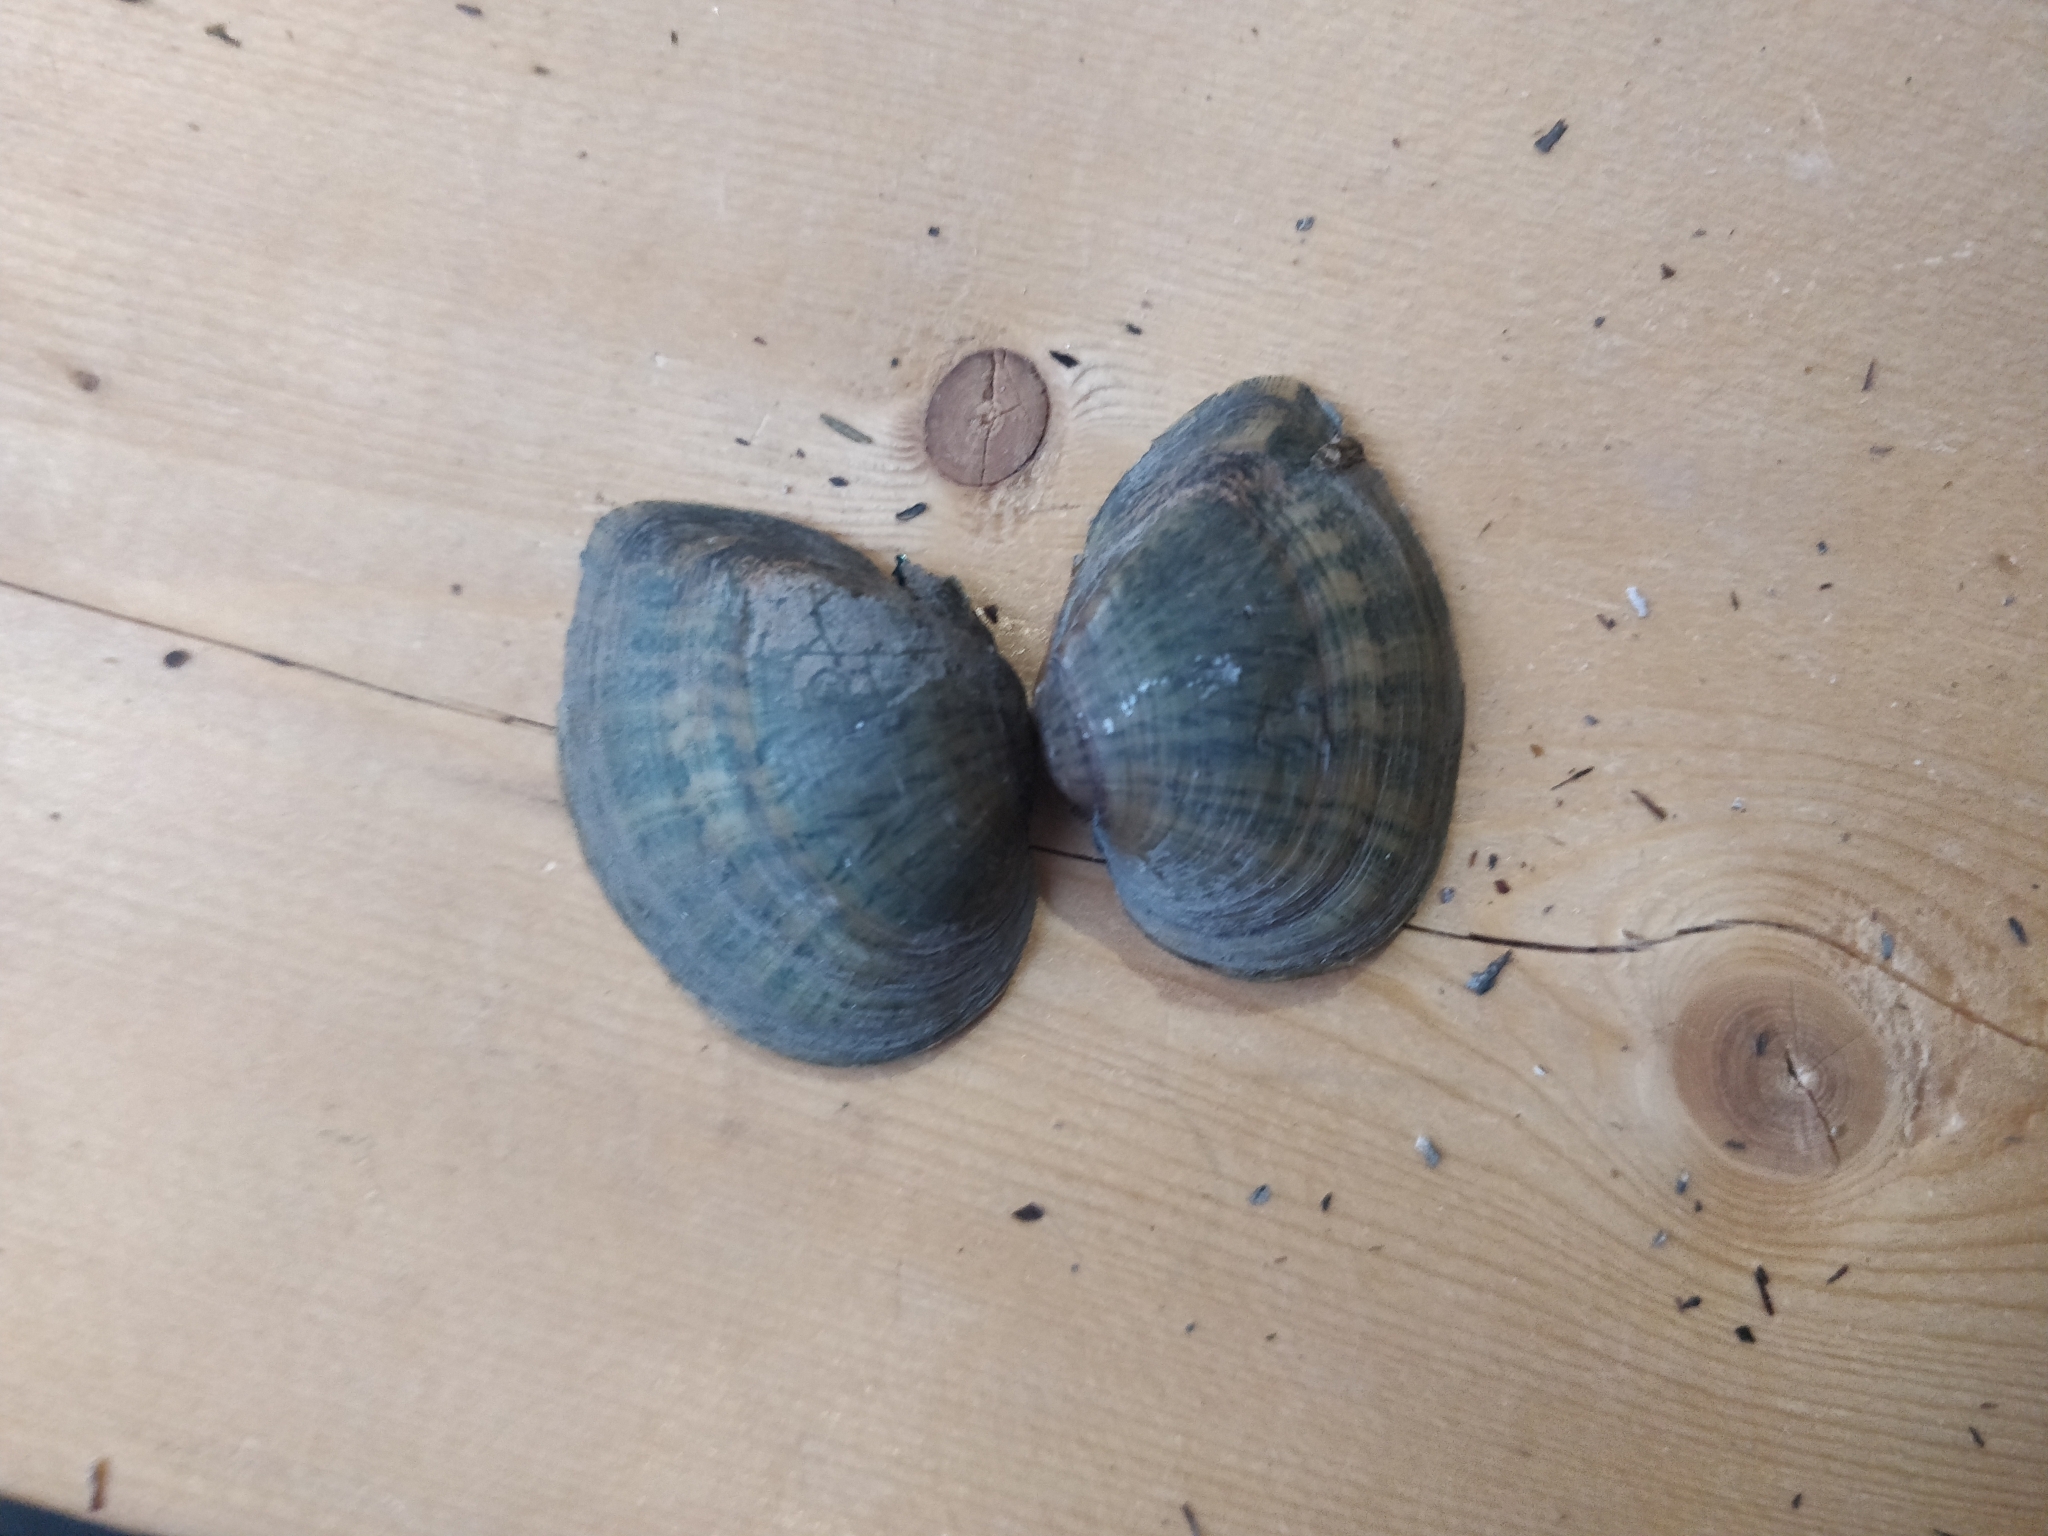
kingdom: Animalia
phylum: Mollusca
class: Bivalvia
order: Unionida
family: Unionidae
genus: Truncilla
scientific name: Truncilla truncata
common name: Deertoe
